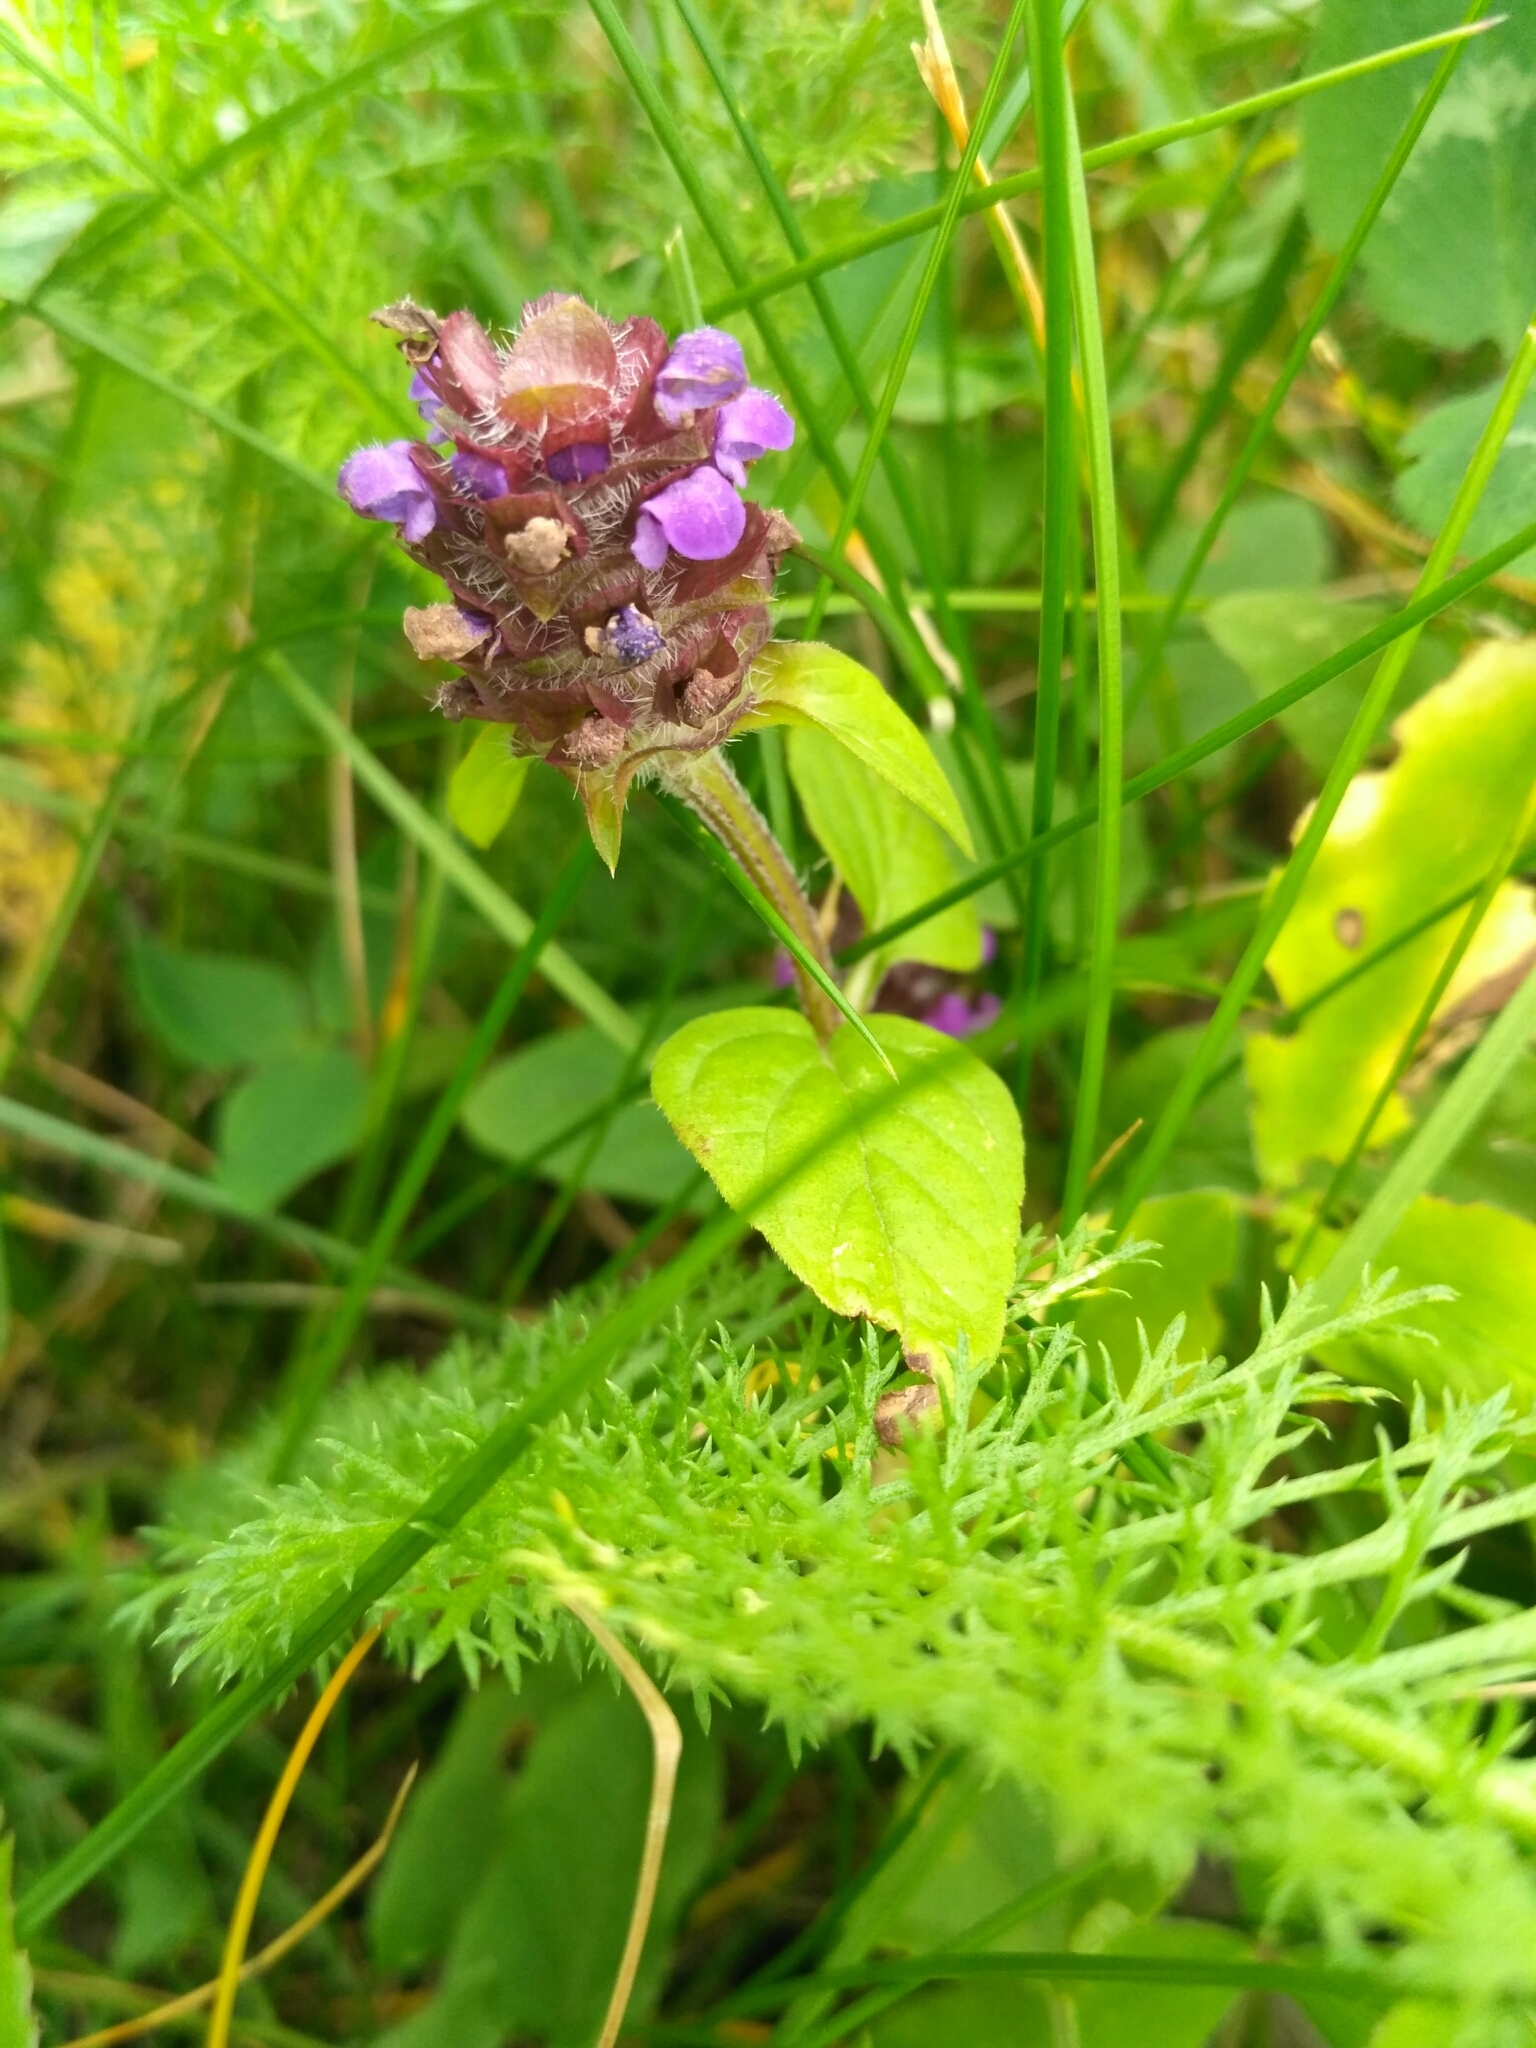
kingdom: Plantae
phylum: Tracheophyta
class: Magnoliopsida
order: Lamiales
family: Lamiaceae
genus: Prunella
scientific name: Prunella vulgaris
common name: Heal-all
